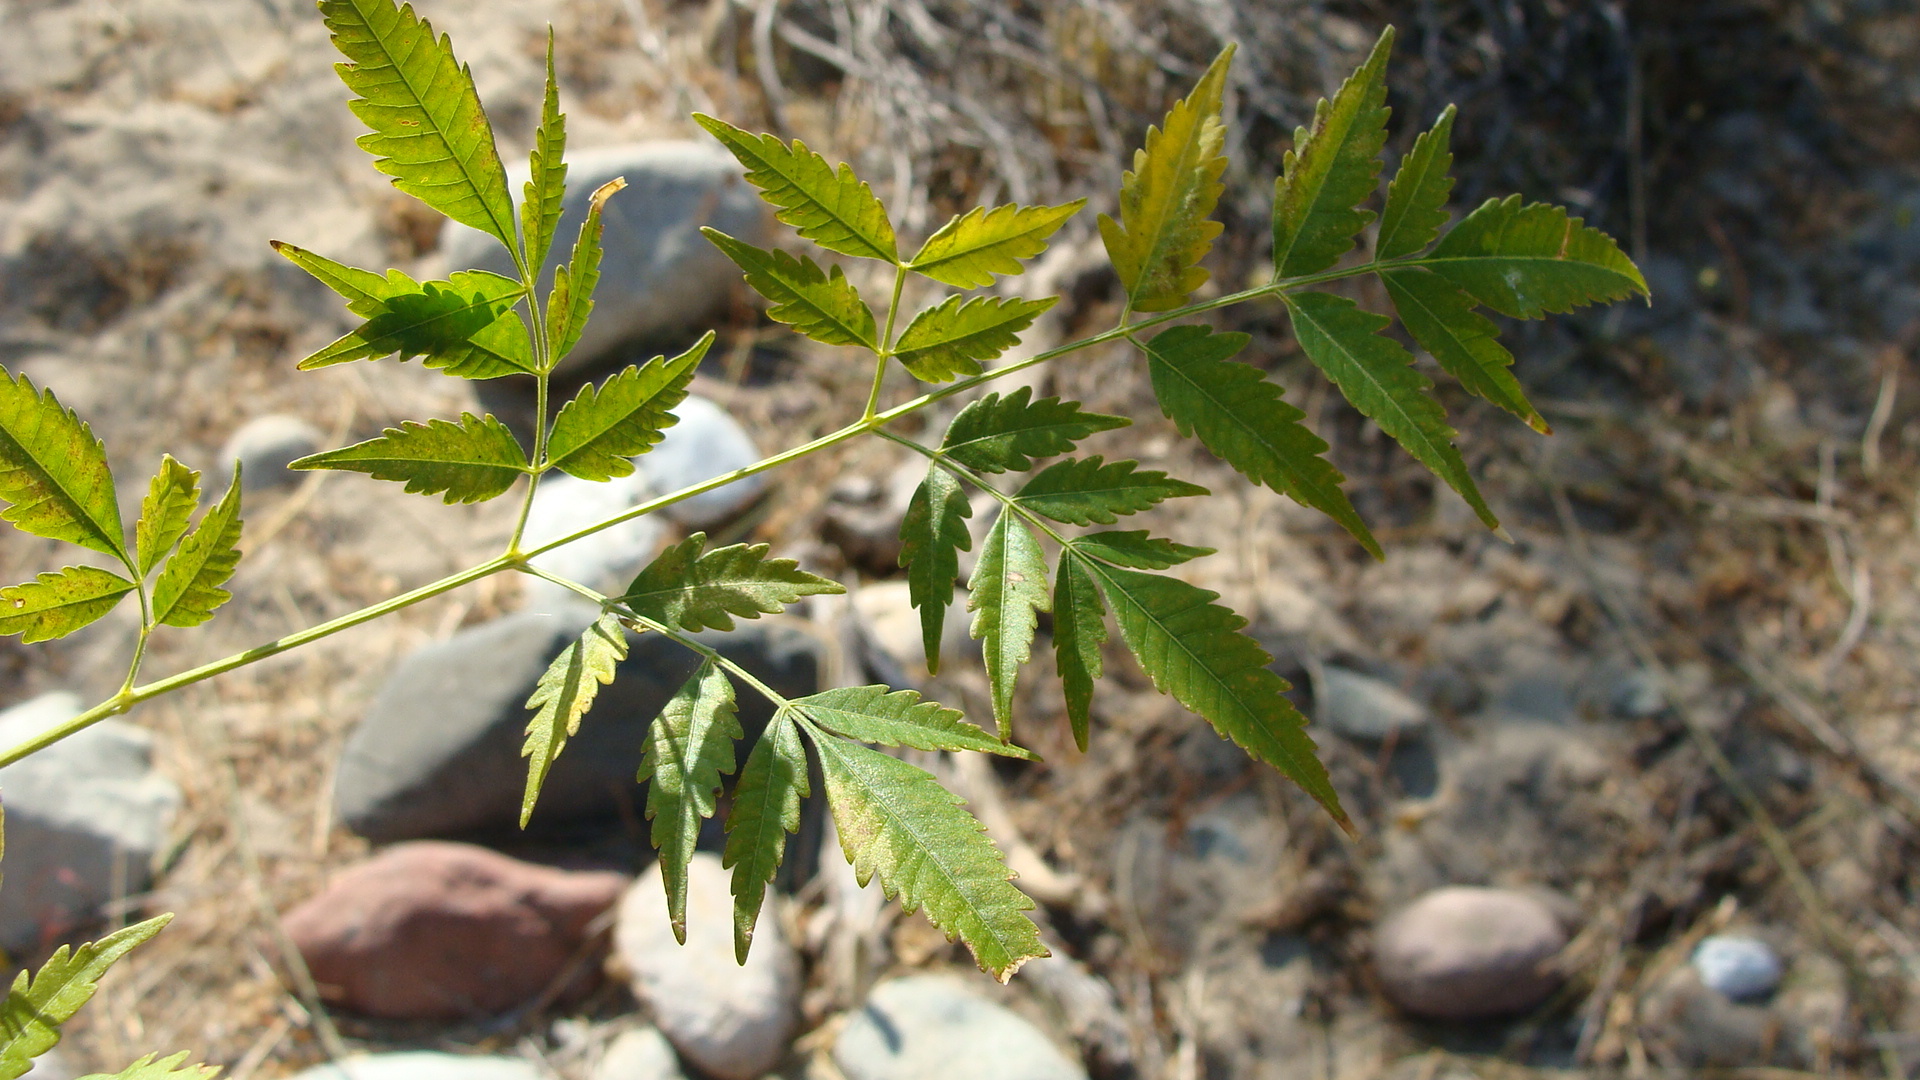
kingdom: Plantae
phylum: Tracheophyta
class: Magnoliopsida
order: Sapindales
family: Meliaceae
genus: Melia
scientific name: Melia azedarach
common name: Chinaberrytree
